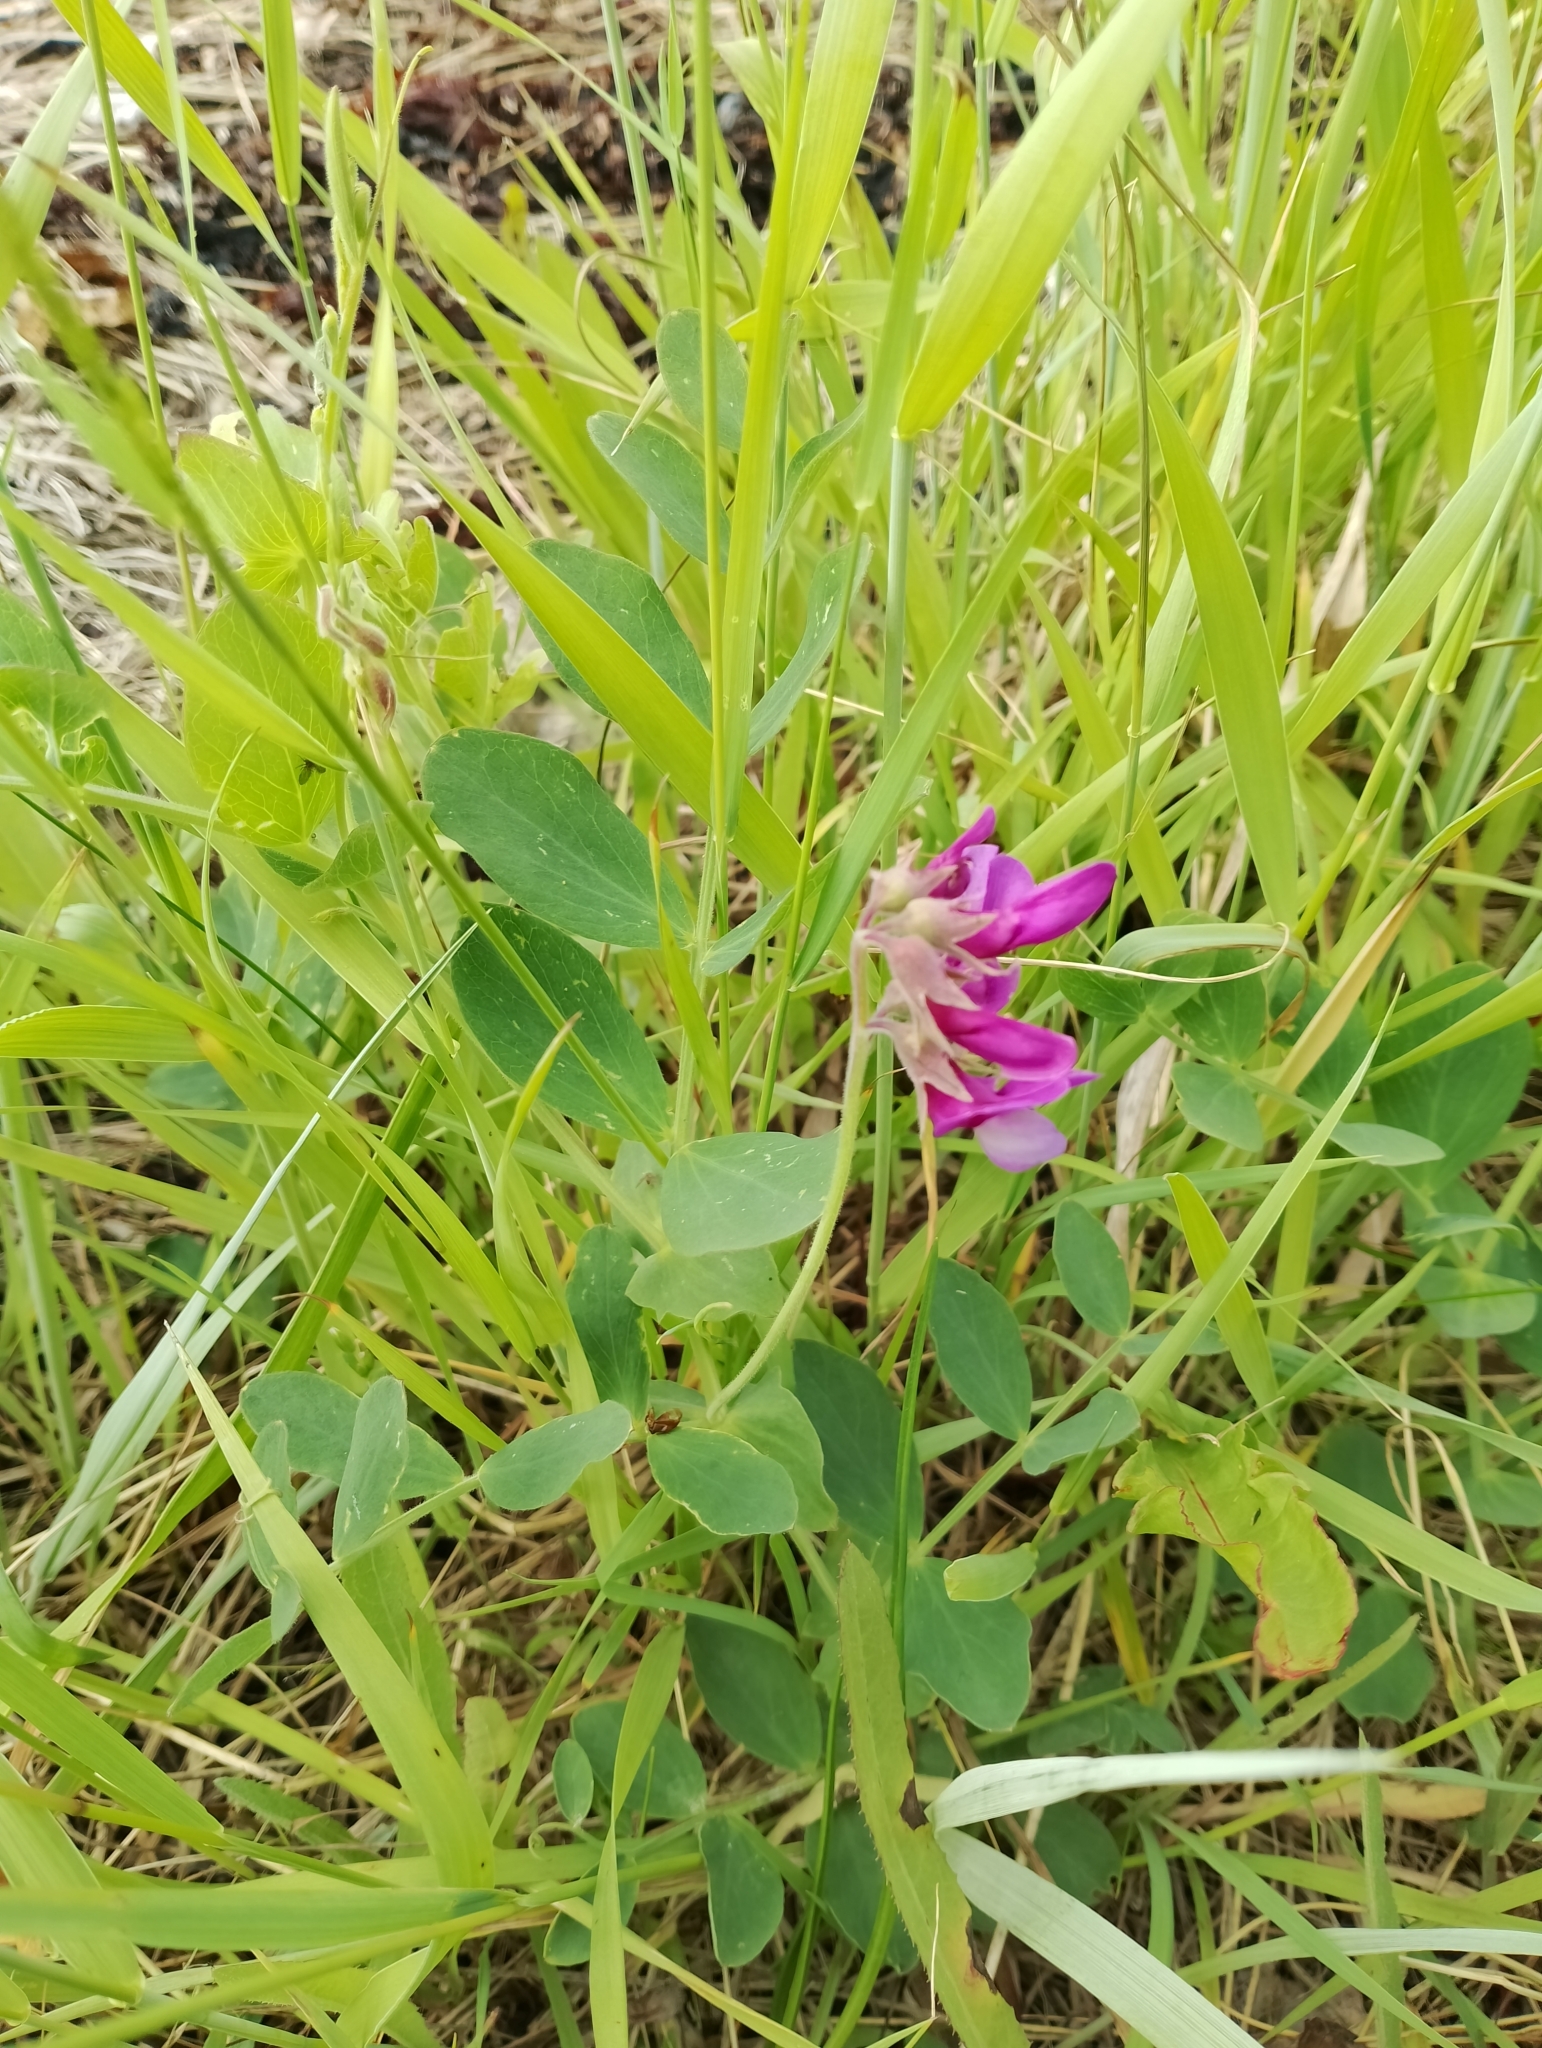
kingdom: Plantae
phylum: Tracheophyta
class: Magnoliopsida
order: Fabales
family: Fabaceae
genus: Lathyrus
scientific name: Lathyrus japonicus
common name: Sea pea
